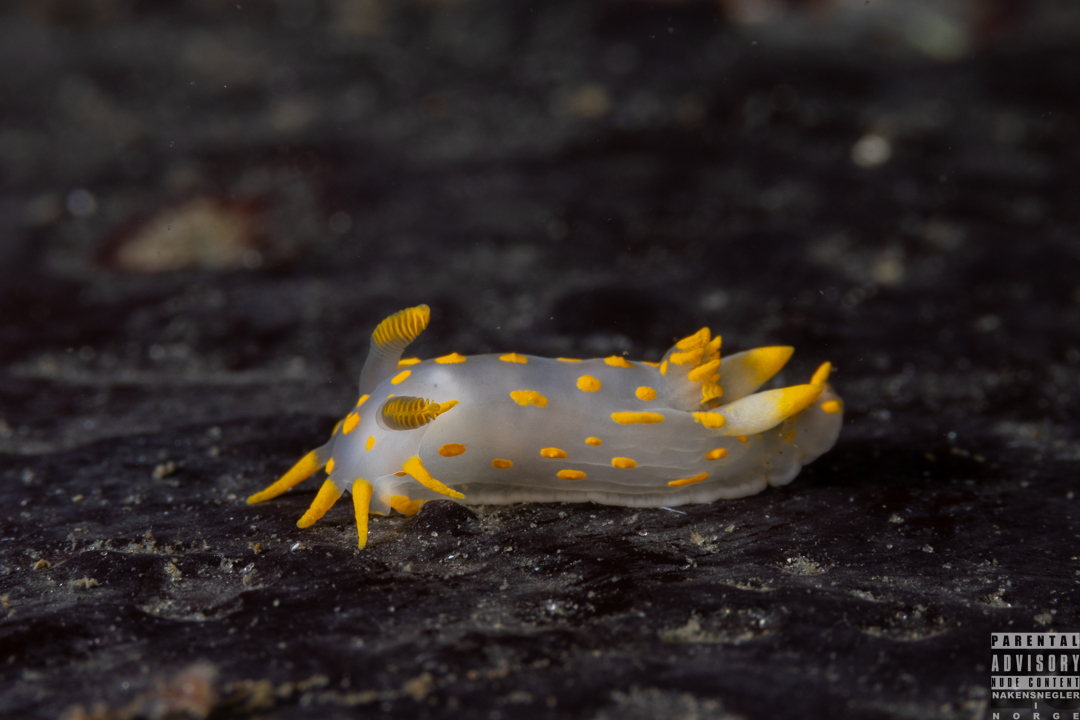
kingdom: Animalia
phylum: Mollusca
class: Gastropoda
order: Nudibranchia
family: Polyceridae
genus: Polycera
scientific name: Polycera quadrilineata
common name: Four-striped polycera
